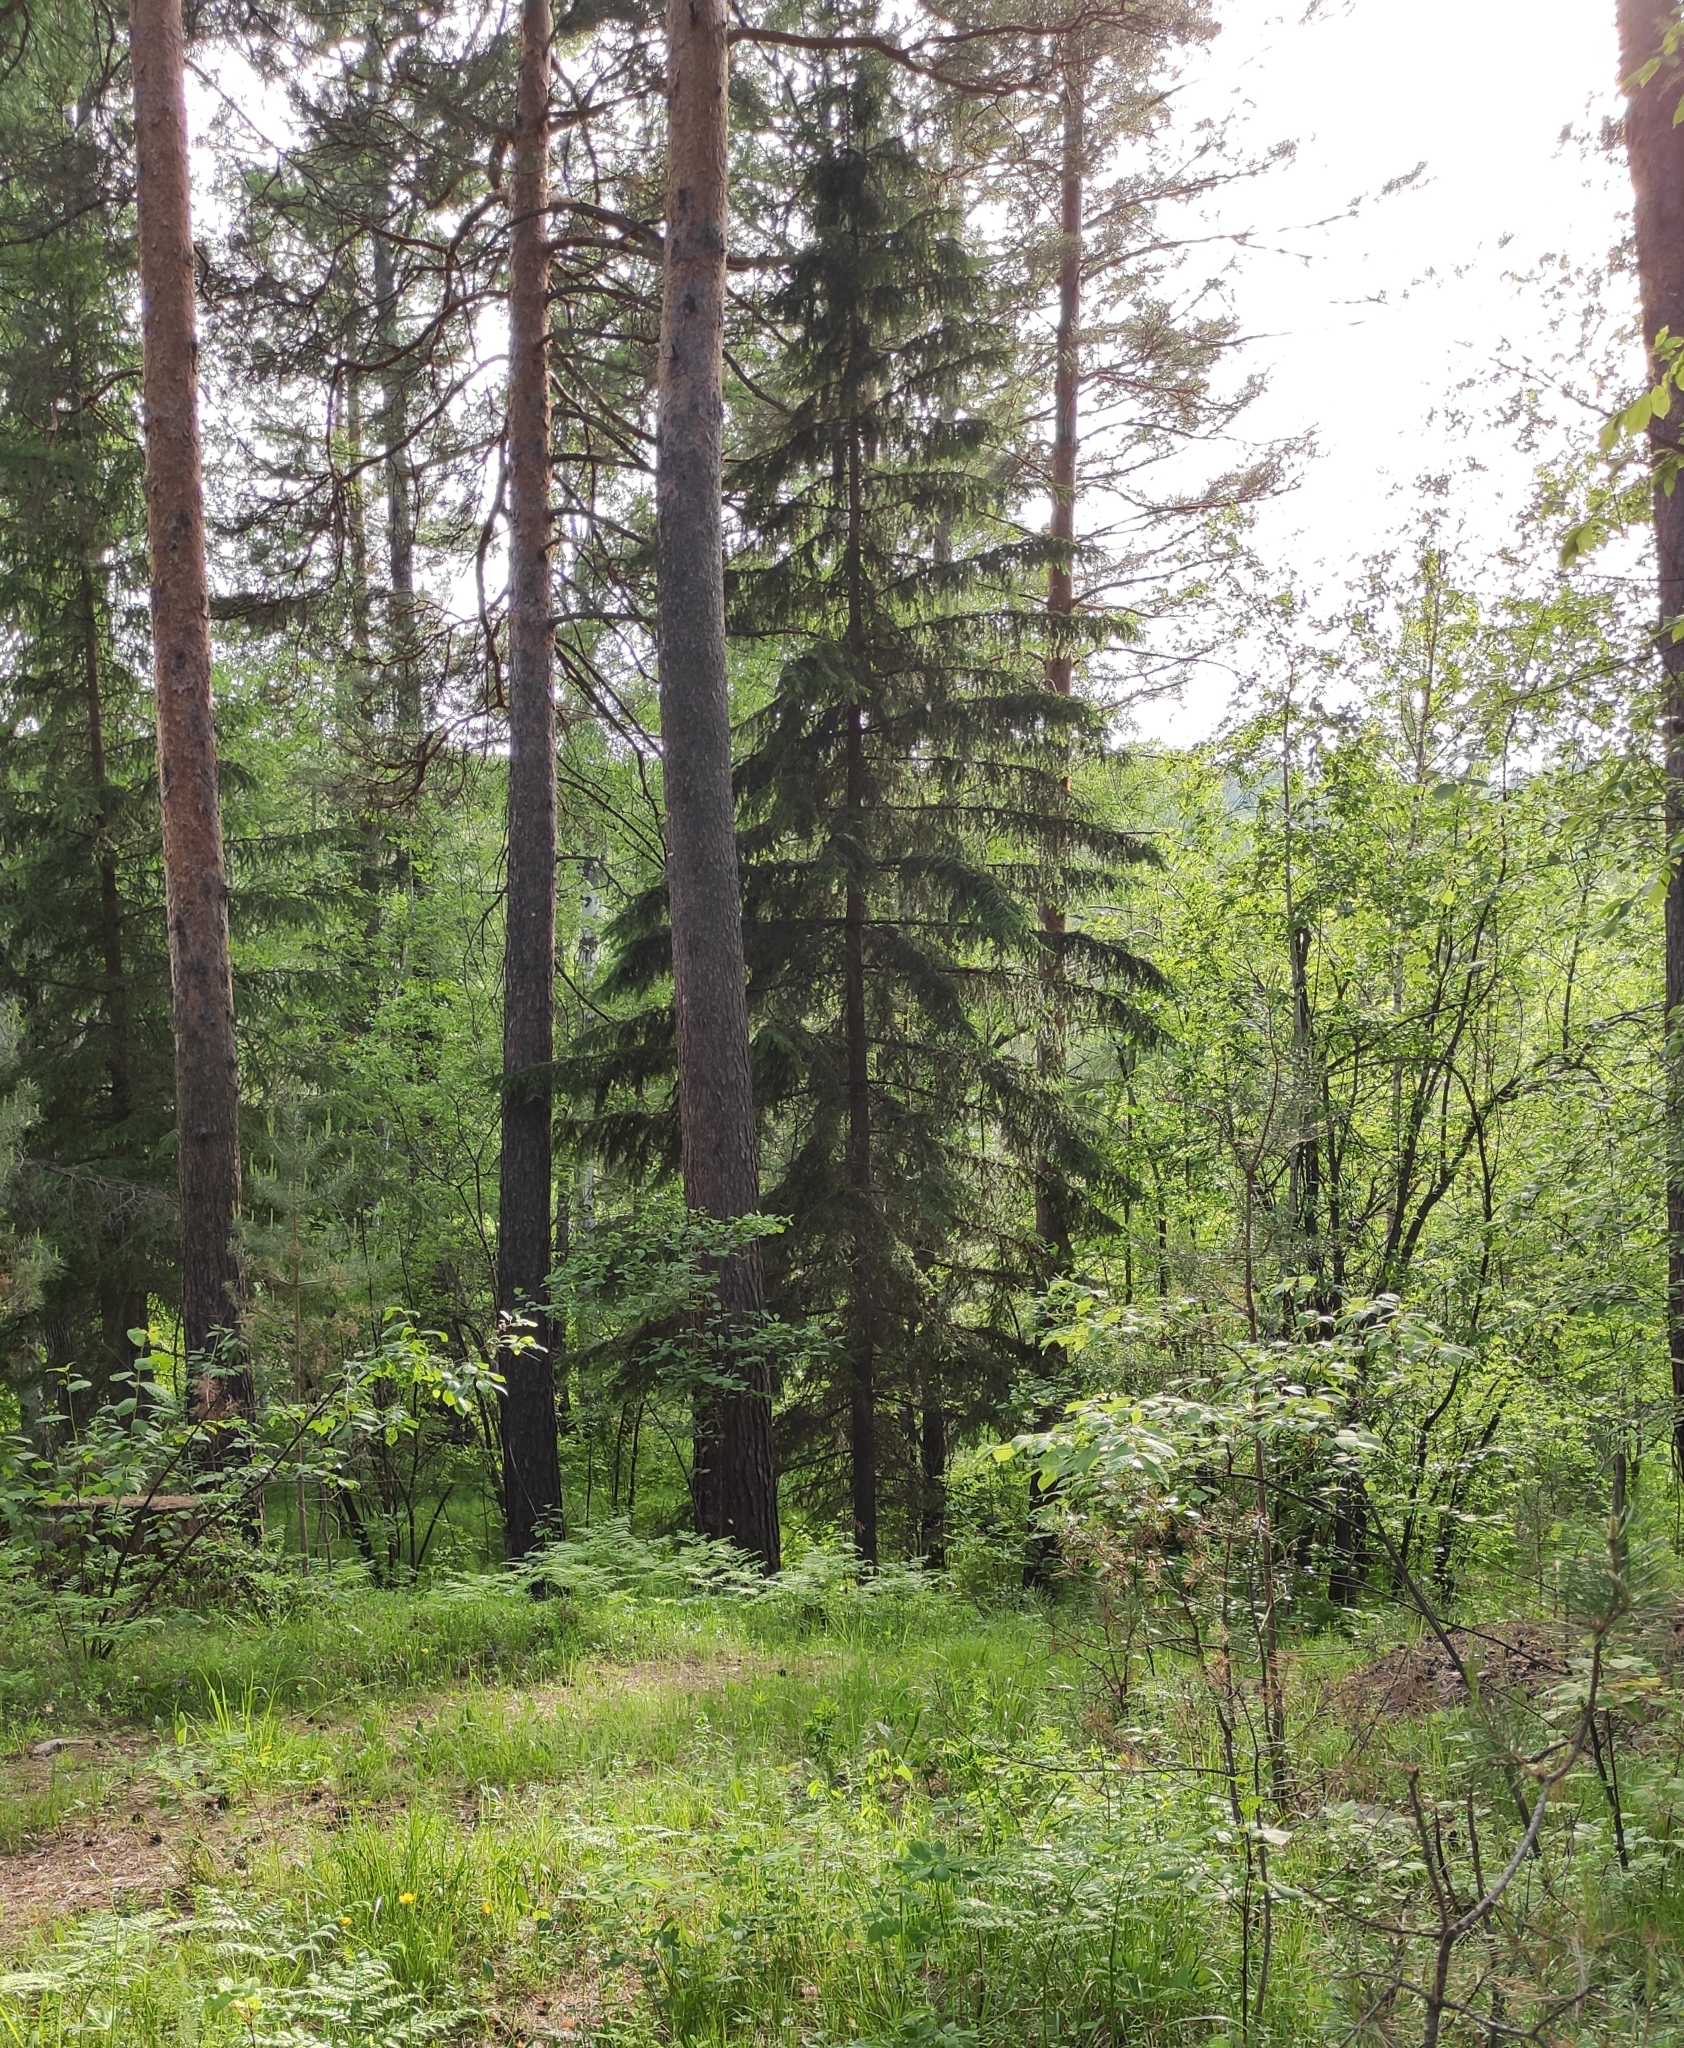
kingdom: Plantae
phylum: Tracheophyta
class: Pinopsida
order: Pinales
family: Pinaceae
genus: Picea
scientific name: Picea obovata
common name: Siberian spruce
